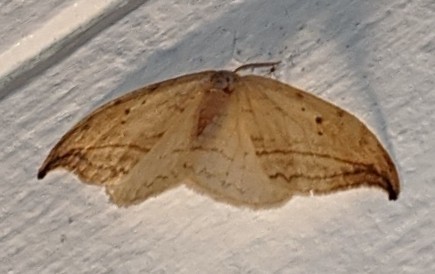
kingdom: Animalia
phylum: Arthropoda
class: Insecta
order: Lepidoptera
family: Drepanidae
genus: Drepana
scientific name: Drepana arcuata
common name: Arched hooktip moth
